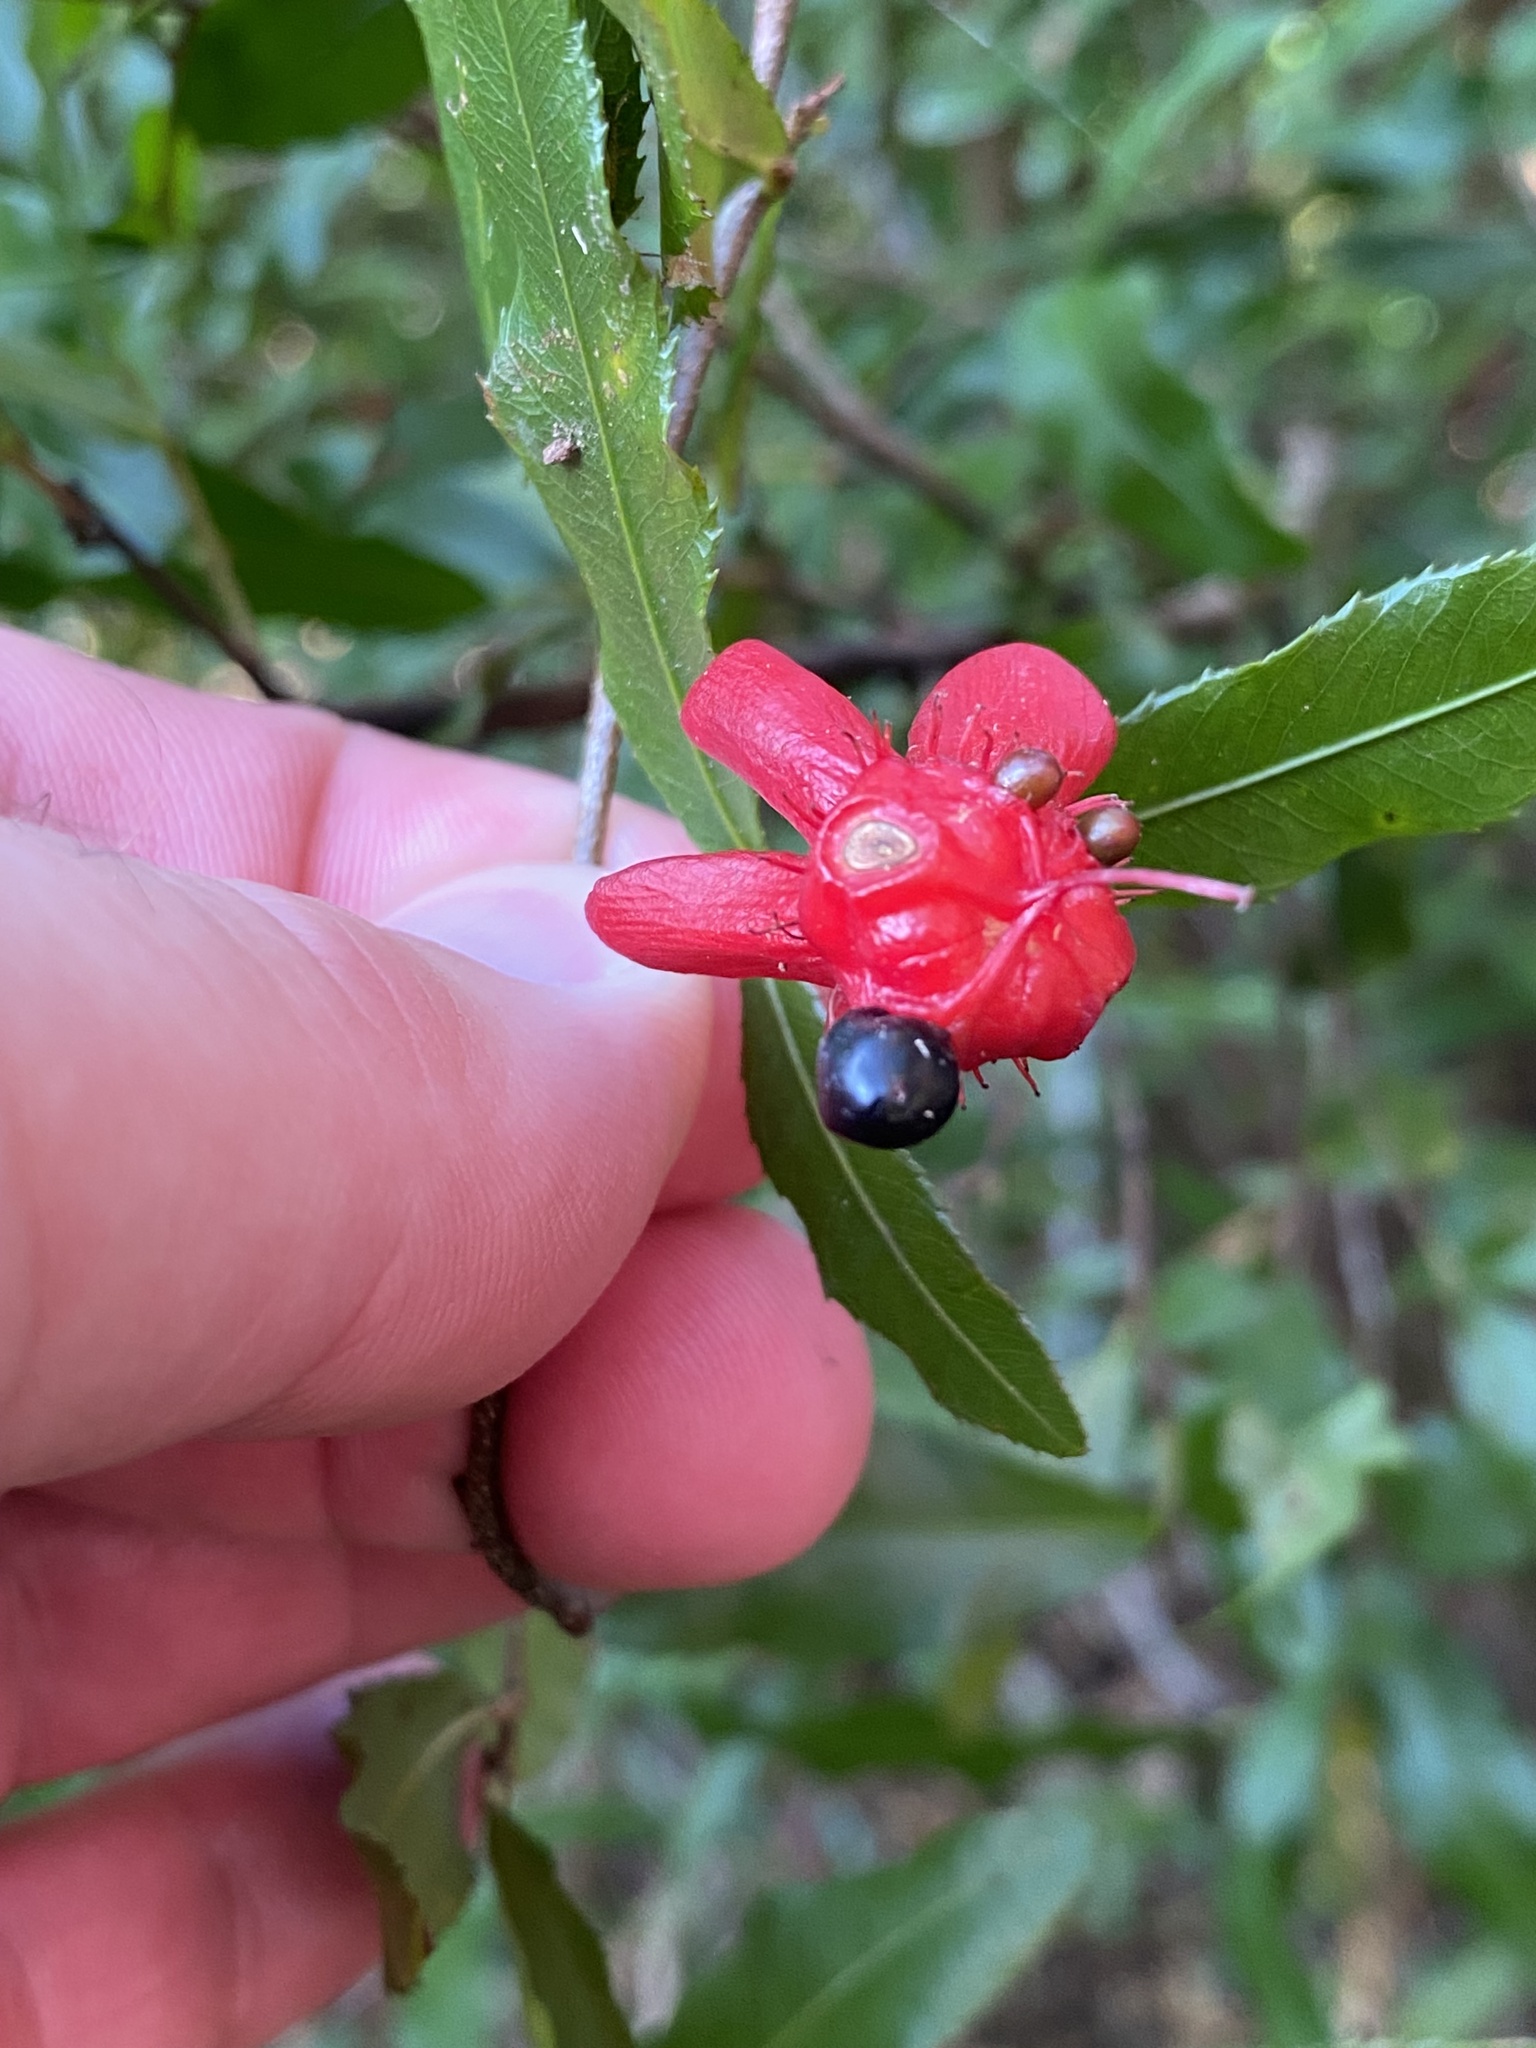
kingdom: Plantae
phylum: Tracheophyta
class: Magnoliopsida
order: Malpighiales
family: Ochnaceae
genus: Ochna
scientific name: Ochna serrulata
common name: Mickey mouse plant
